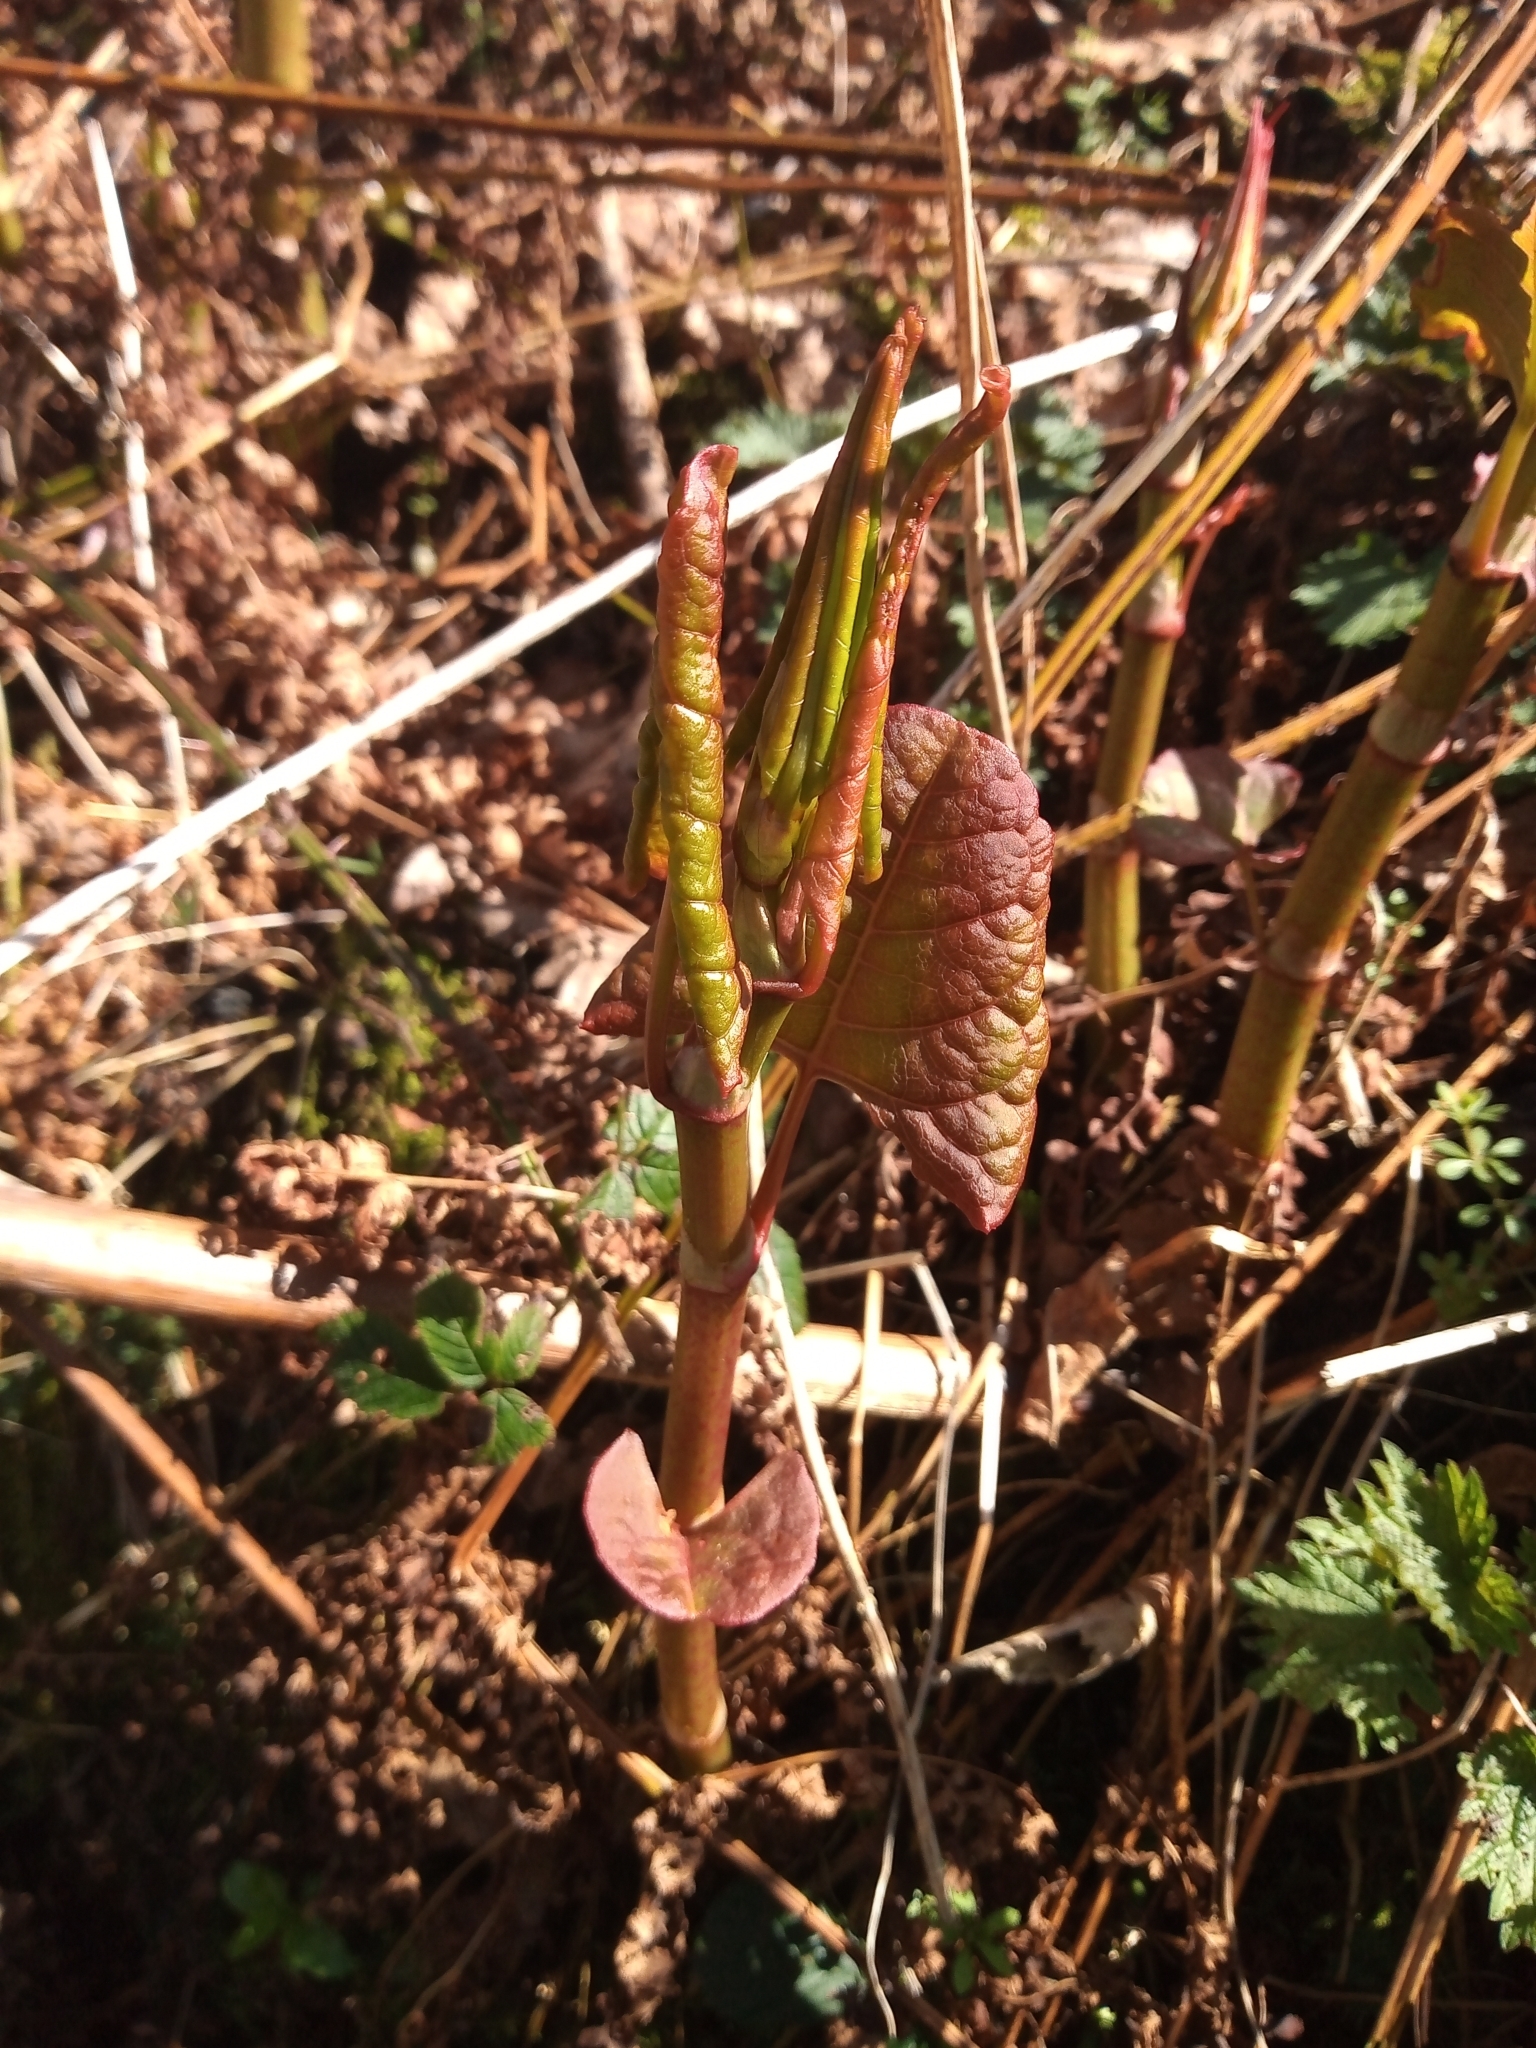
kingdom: Plantae
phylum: Tracheophyta
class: Magnoliopsida
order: Caryophyllales
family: Polygonaceae
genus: Reynoutria
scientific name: Reynoutria japonica
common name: Japanese knotweed
